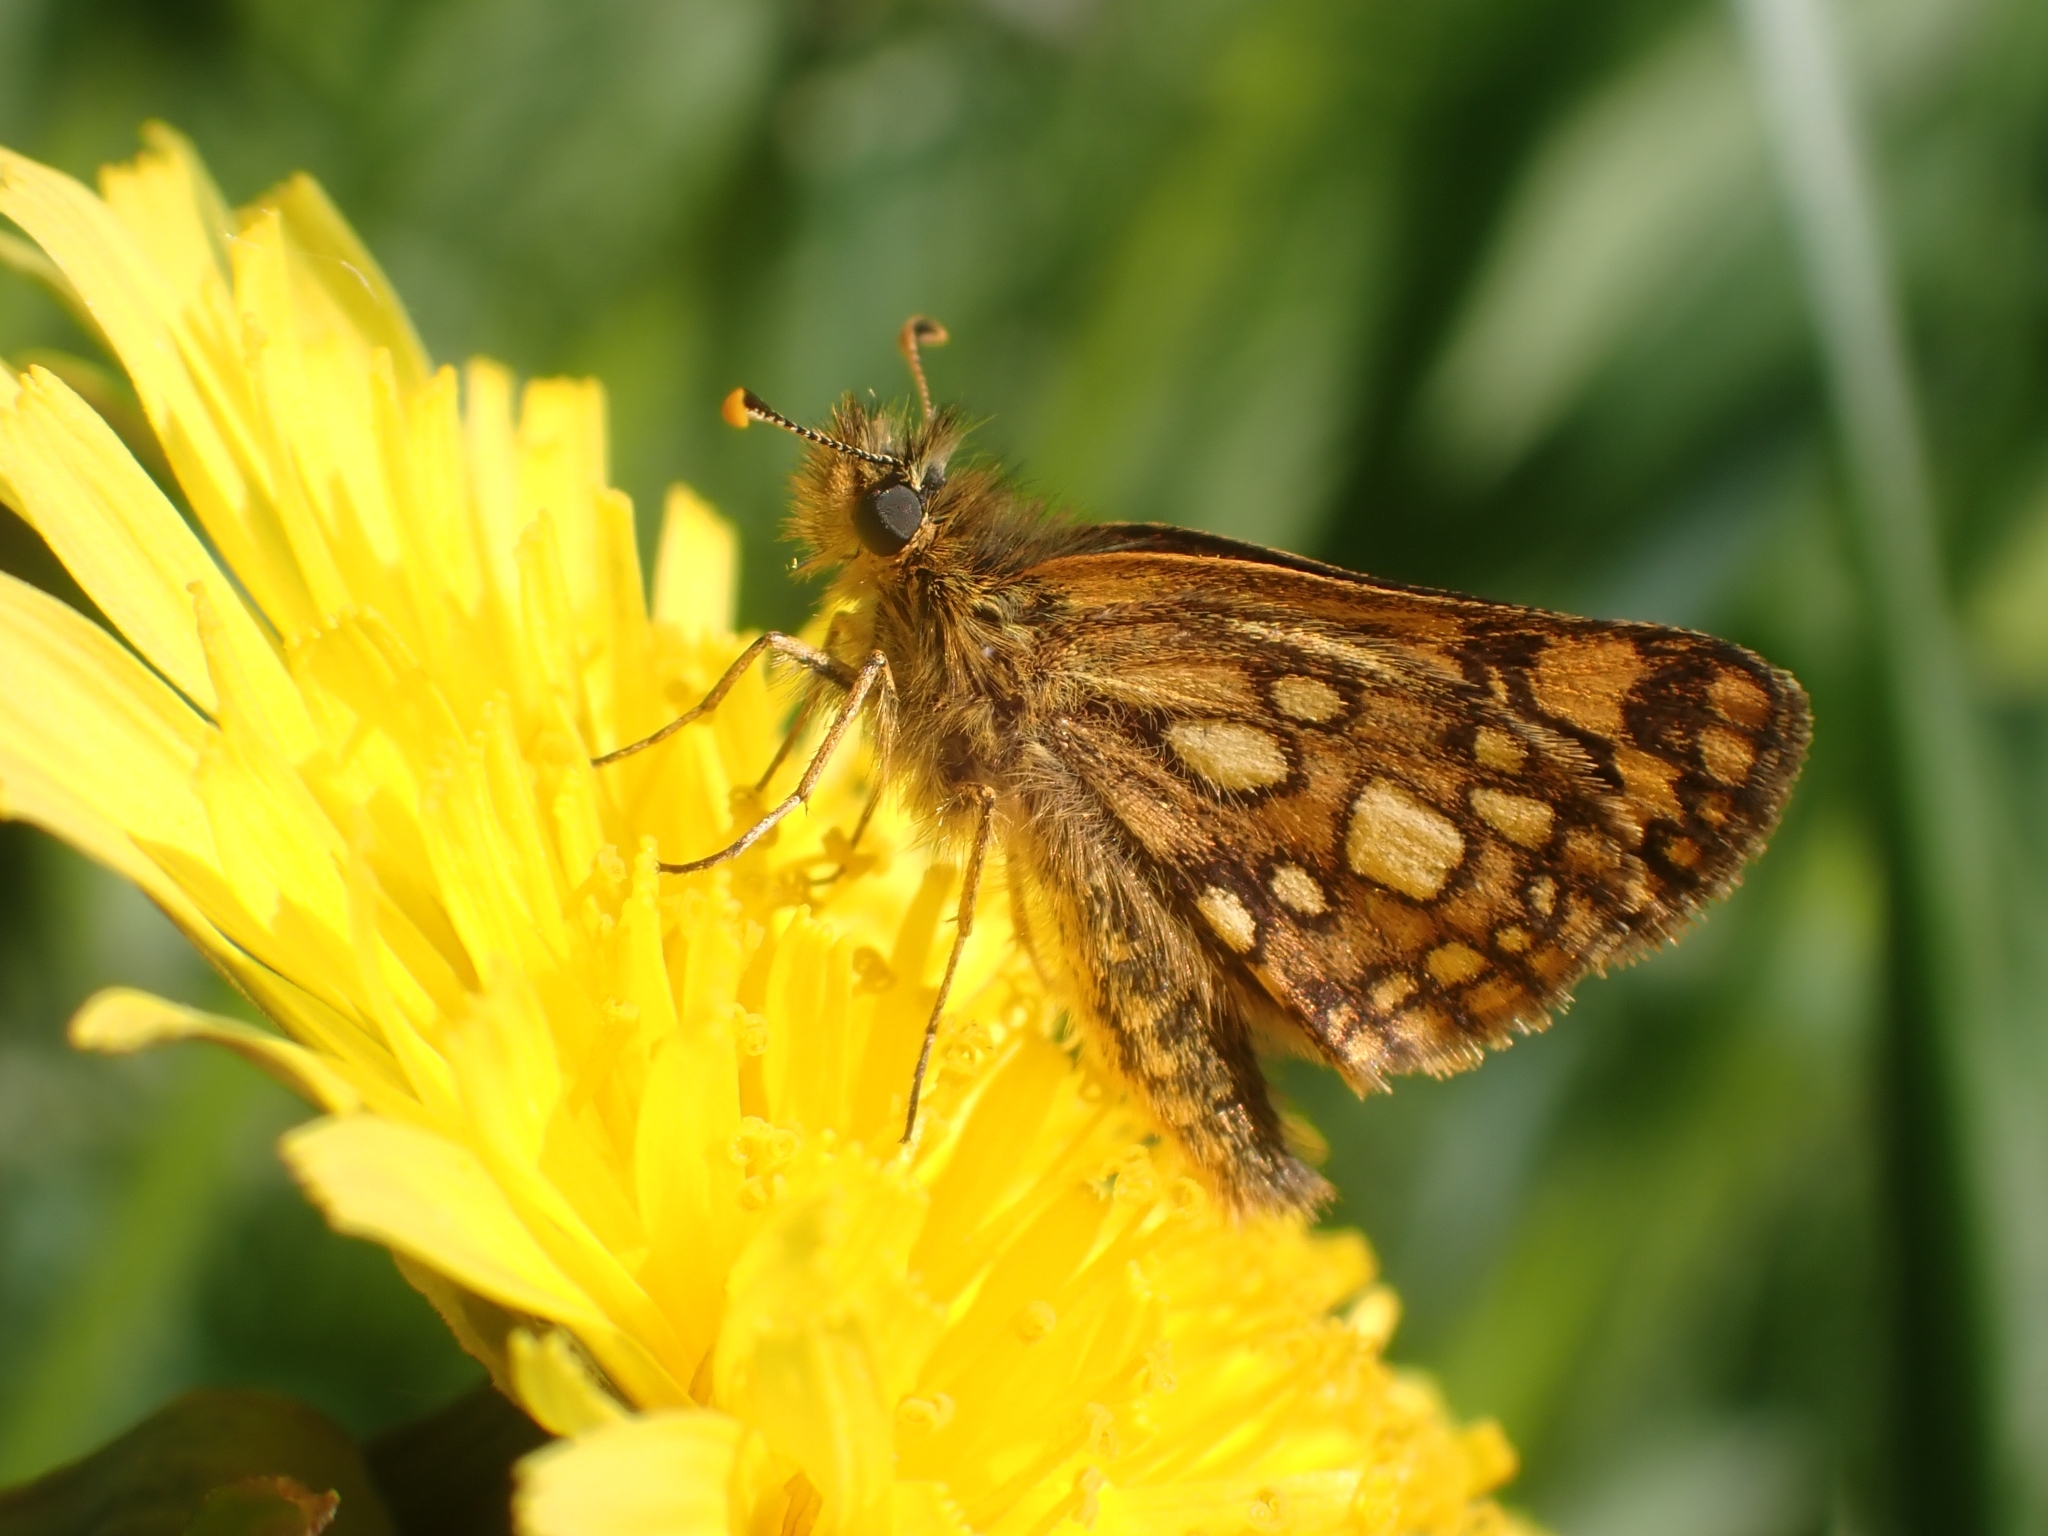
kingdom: Animalia
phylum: Arthropoda
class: Insecta
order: Lepidoptera
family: Hesperiidae
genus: Carterocephalus
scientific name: Carterocephalus skada
